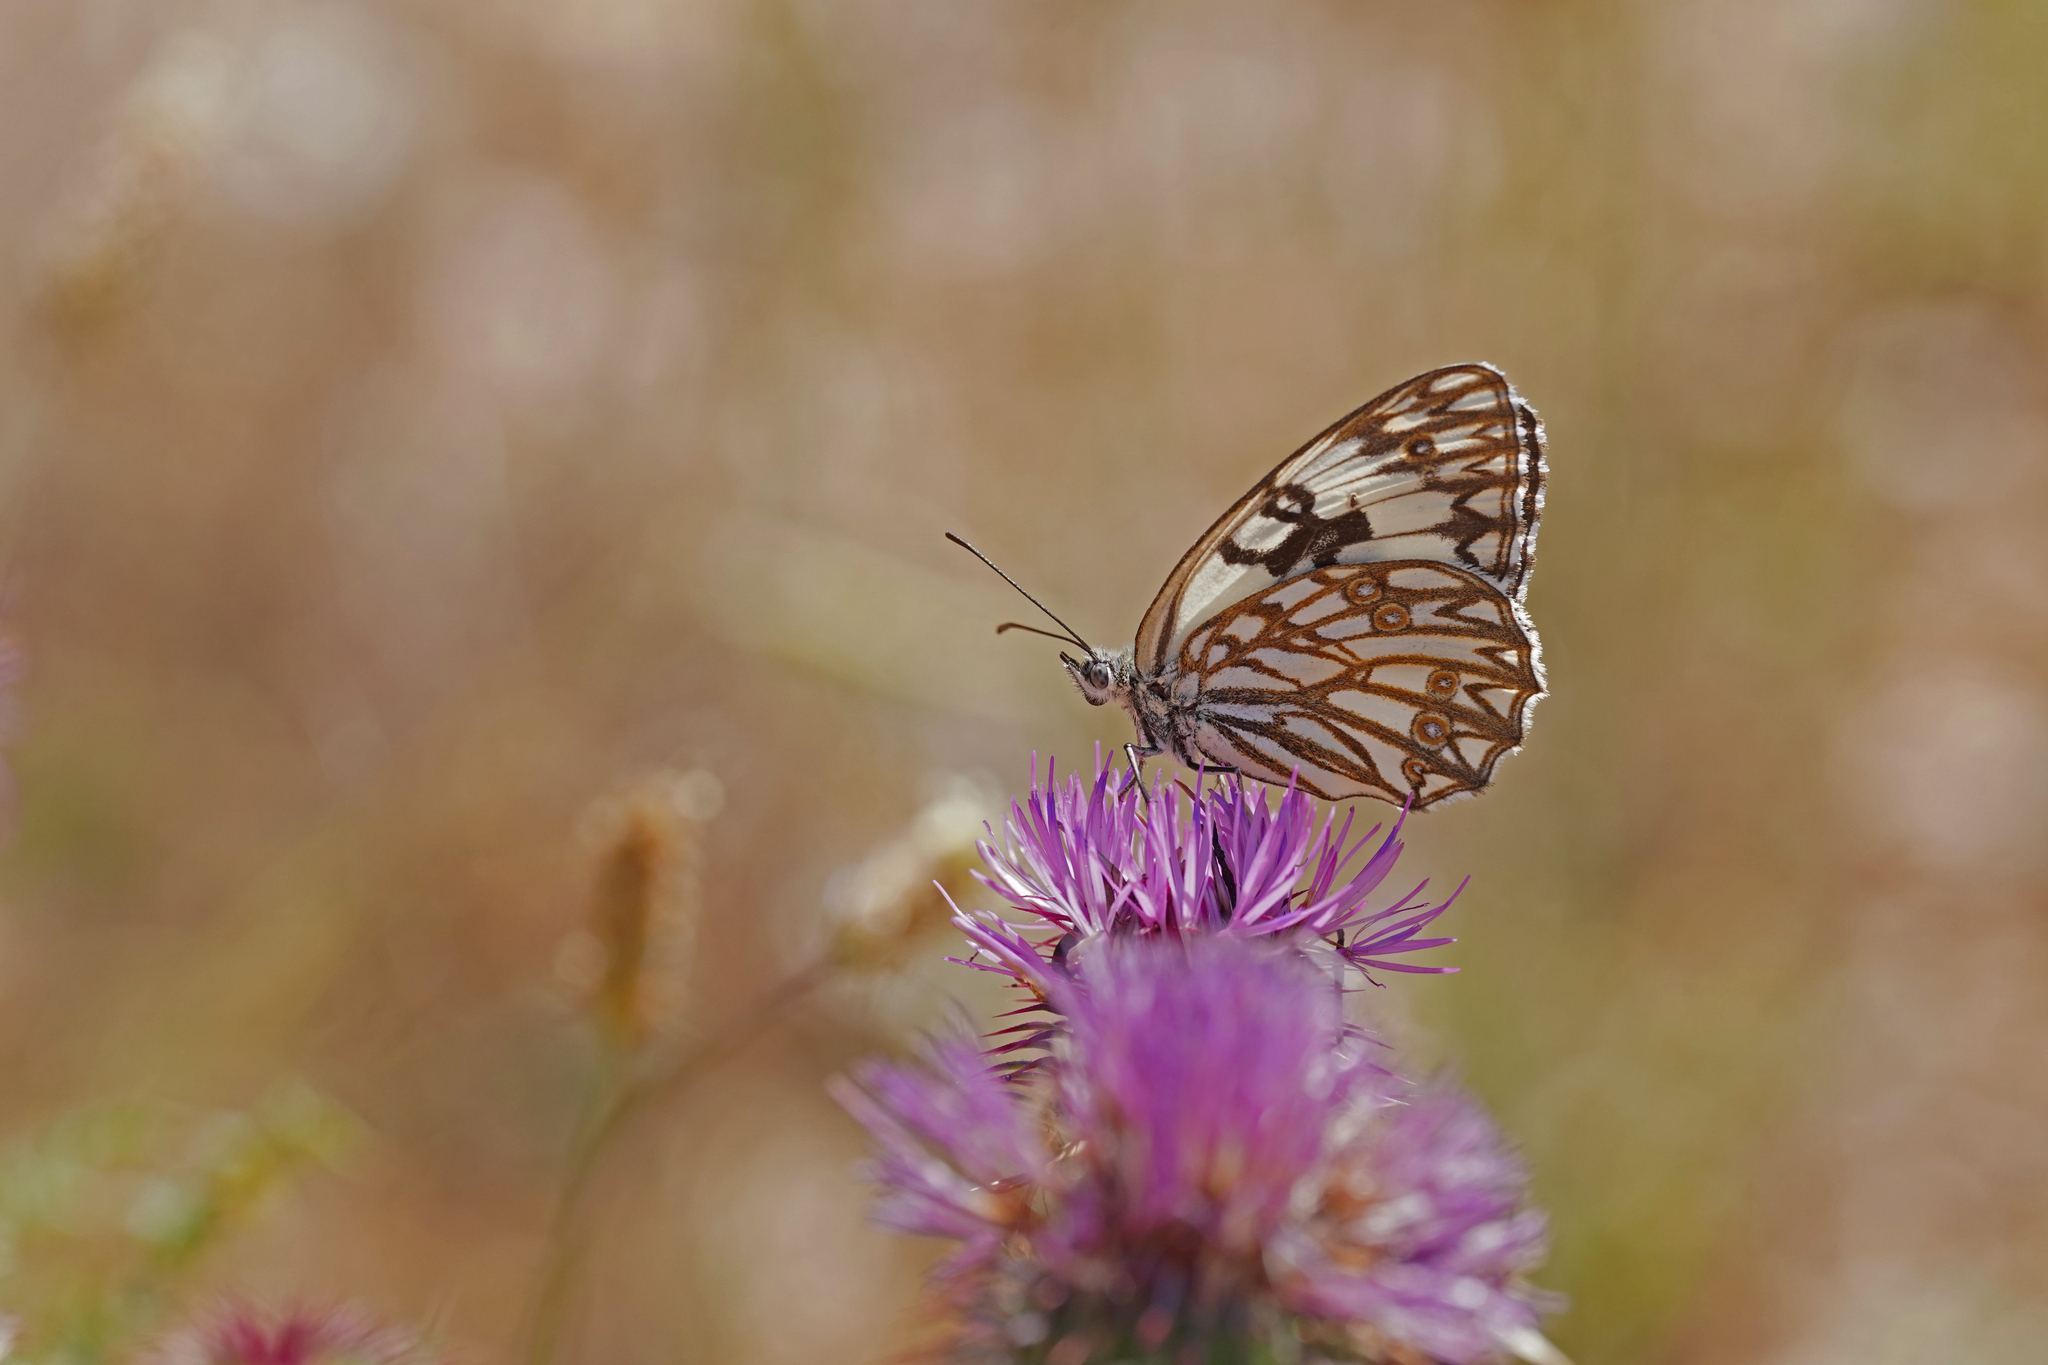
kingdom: Animalia
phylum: Arthropoda
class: Insecta
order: Lepidoptera
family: Nymphalidae
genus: Melanargia
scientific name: Melanargia occitanica
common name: Western marbled white
